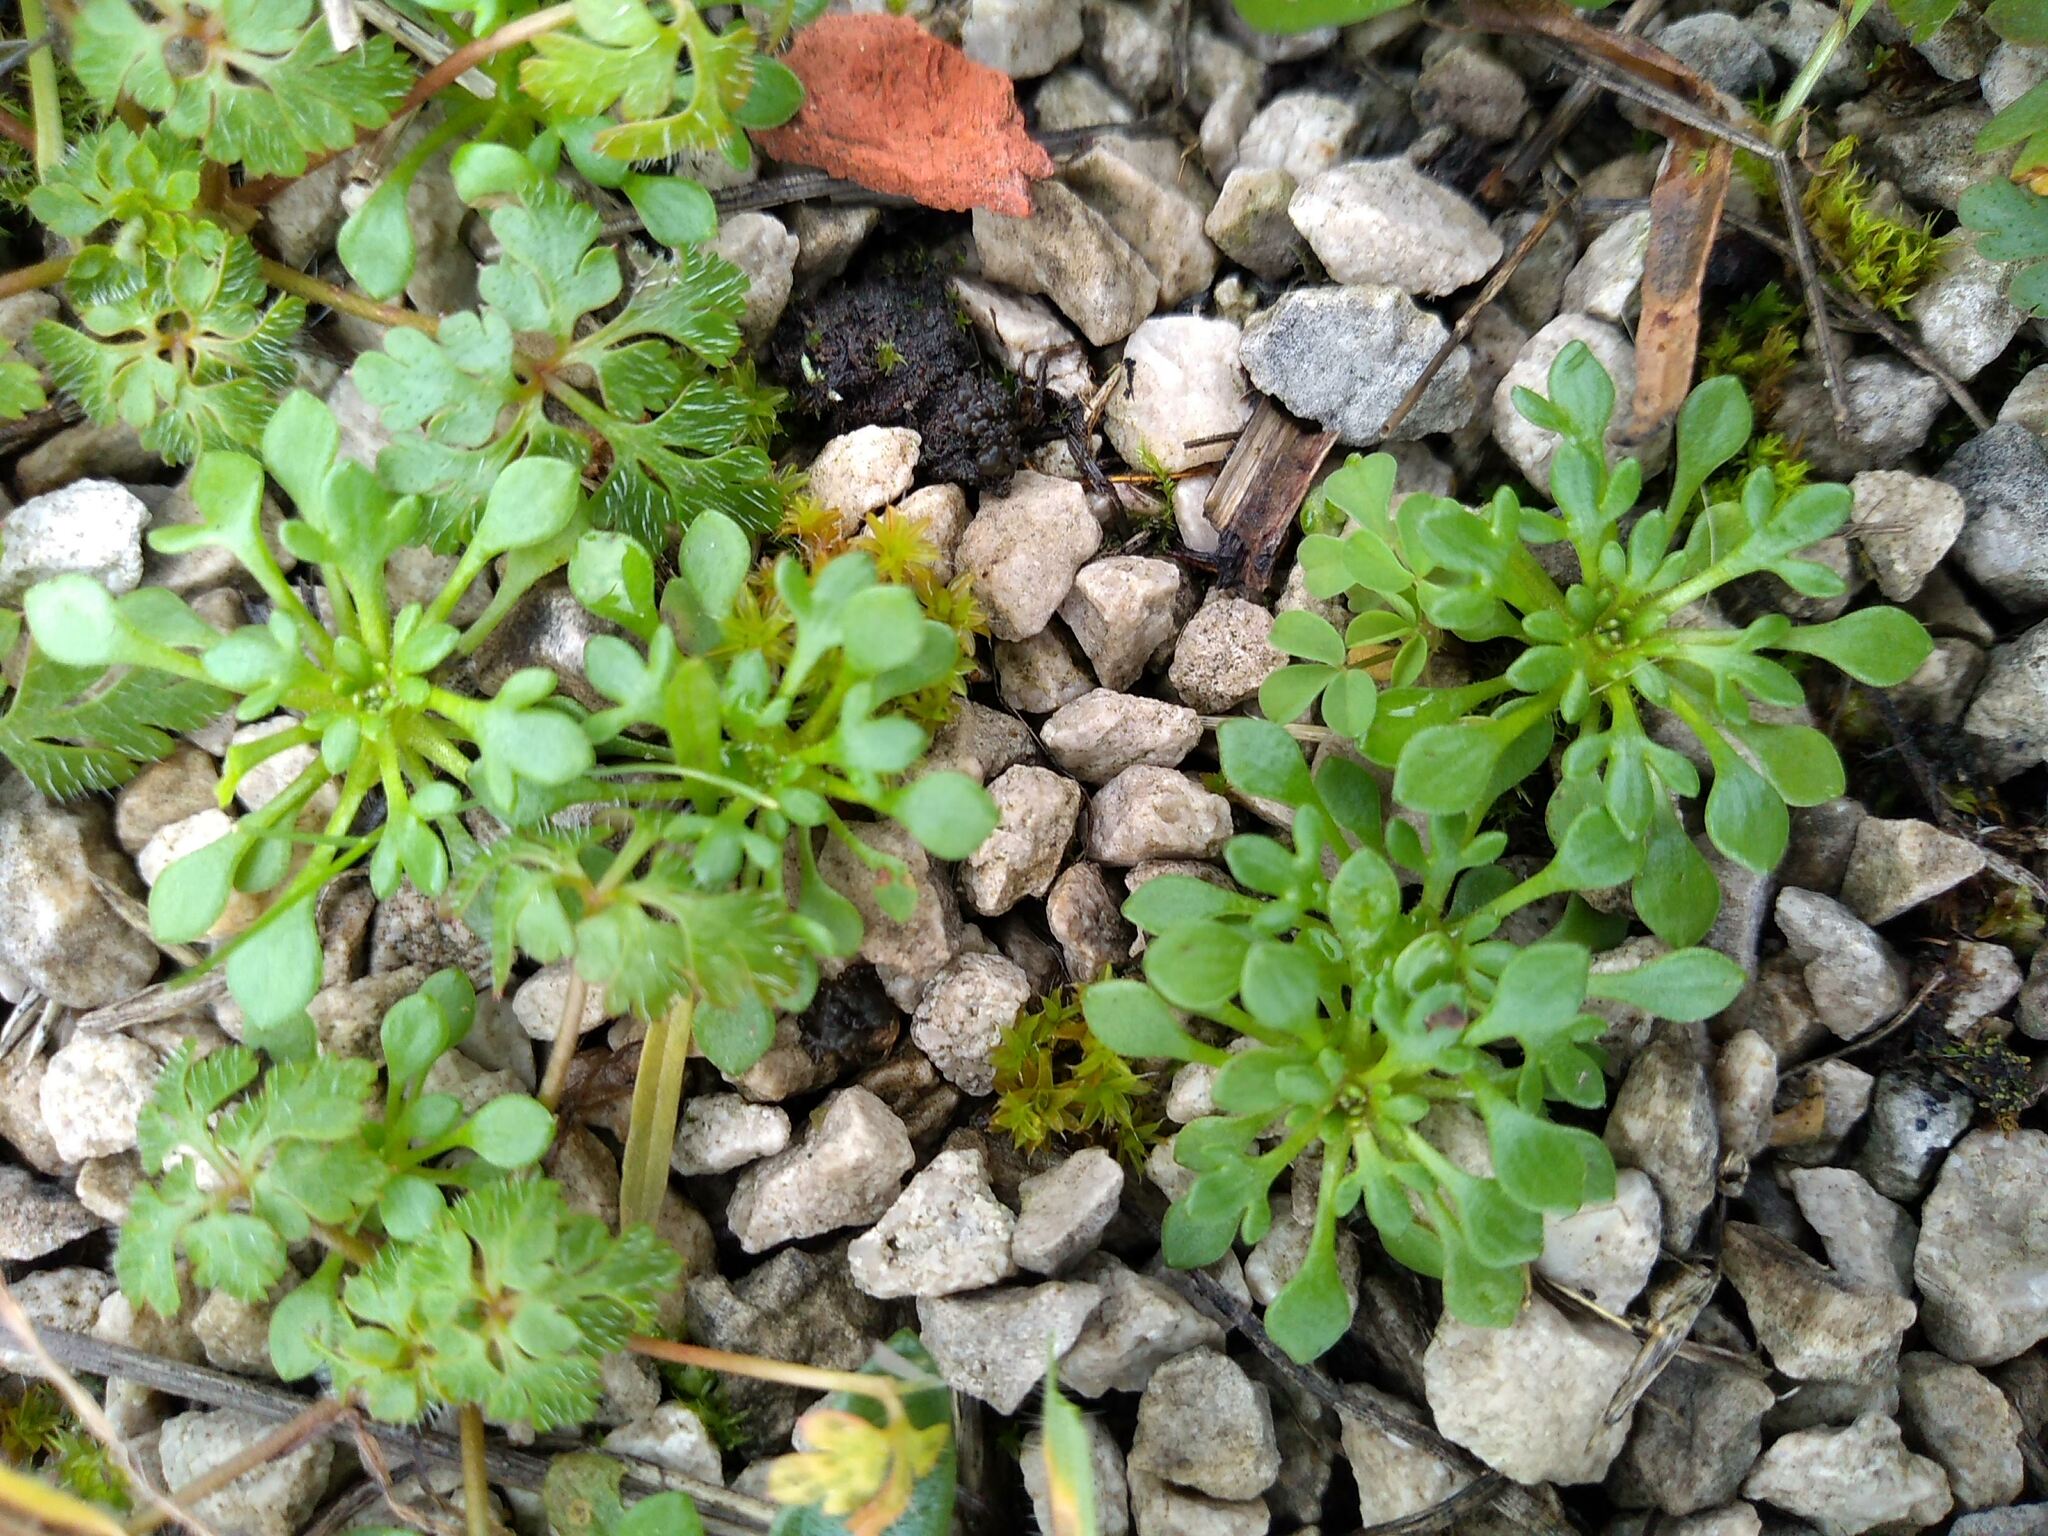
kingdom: Plantae
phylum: Tracheophyta
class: Magnoliopsida
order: Saxifragales
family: Saxifragaceae
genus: Saxifraga
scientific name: Saxifraga tridactylites
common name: Rue-leaved saxifrage
